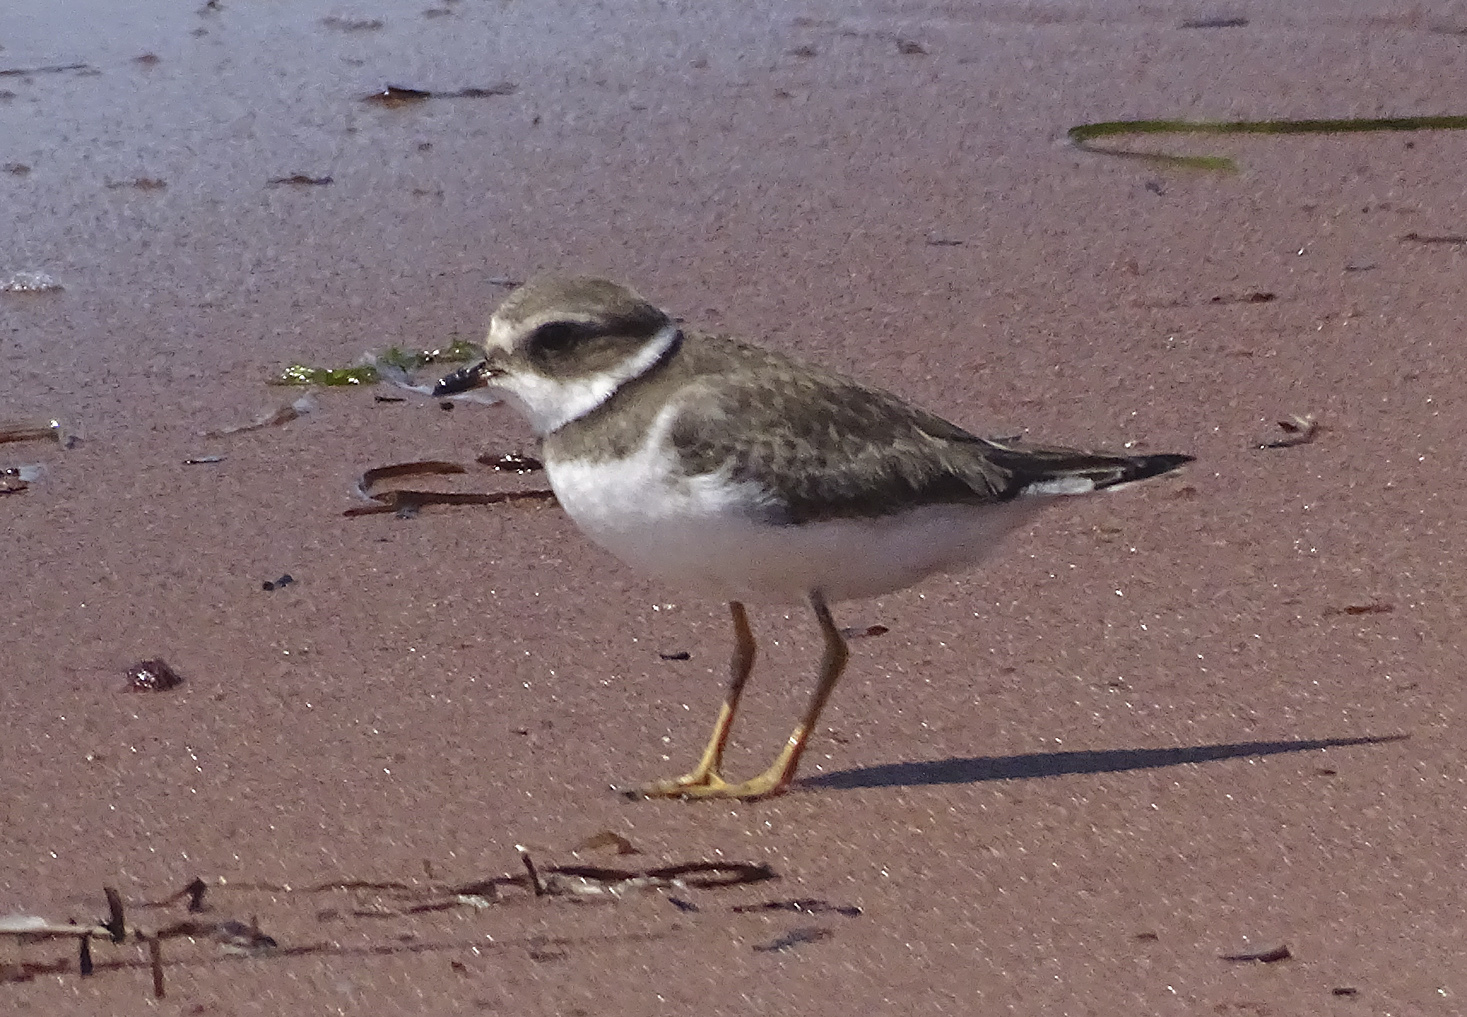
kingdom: Animalia
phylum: Chordata
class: Aves
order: Charadriiformes
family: Charadriidae
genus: Charadrius
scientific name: Charadrius semipalmatus
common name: Semipalmated plover
